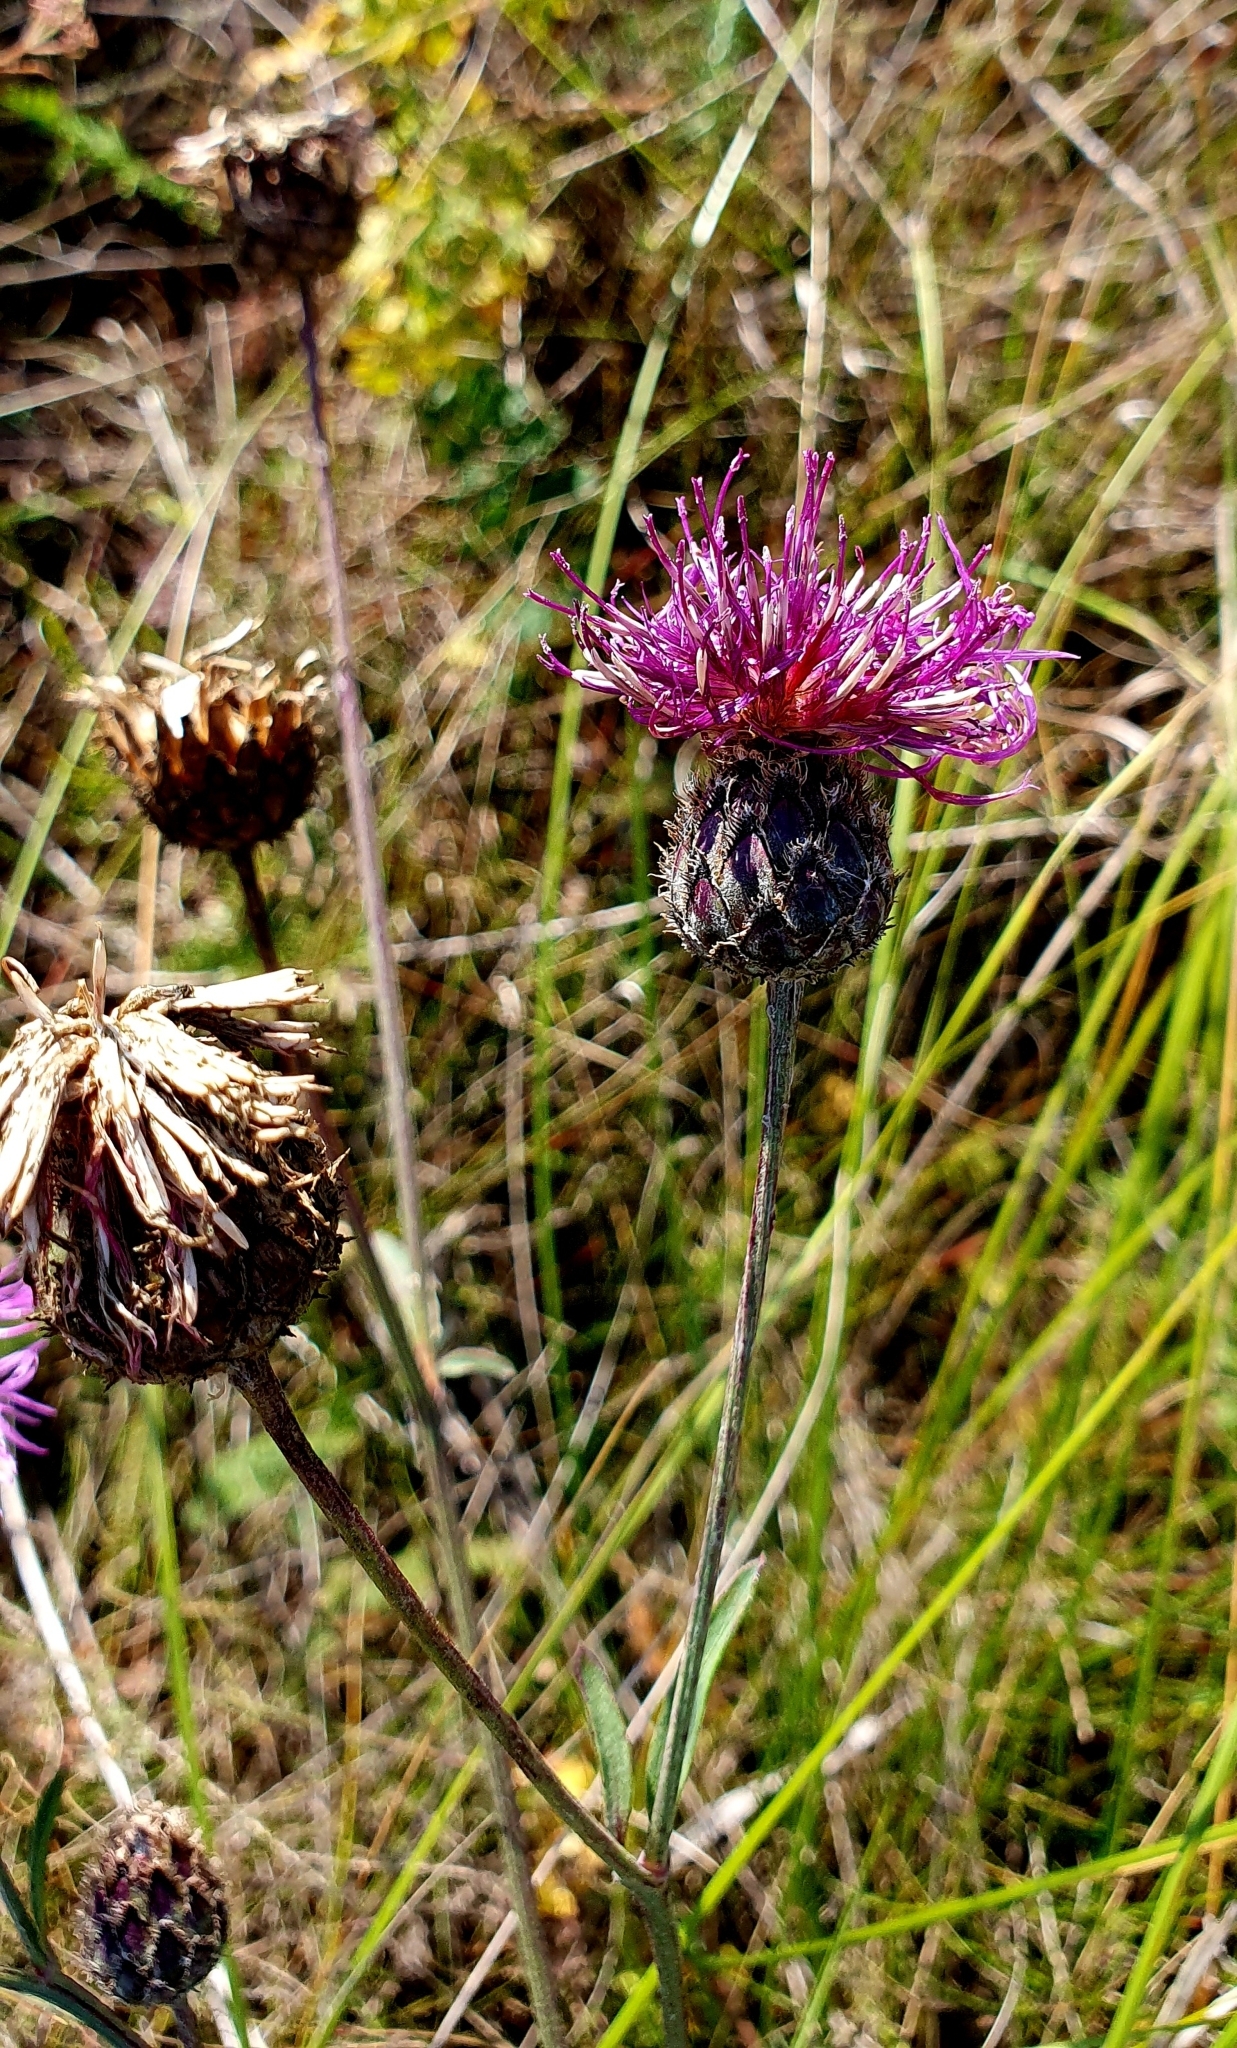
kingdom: Plantae
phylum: Tracheophyta
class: Magnoliopsida
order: Asterales
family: Asteraceae
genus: Centaurea
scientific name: Centaurea scabiosa
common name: Greater knapweed
